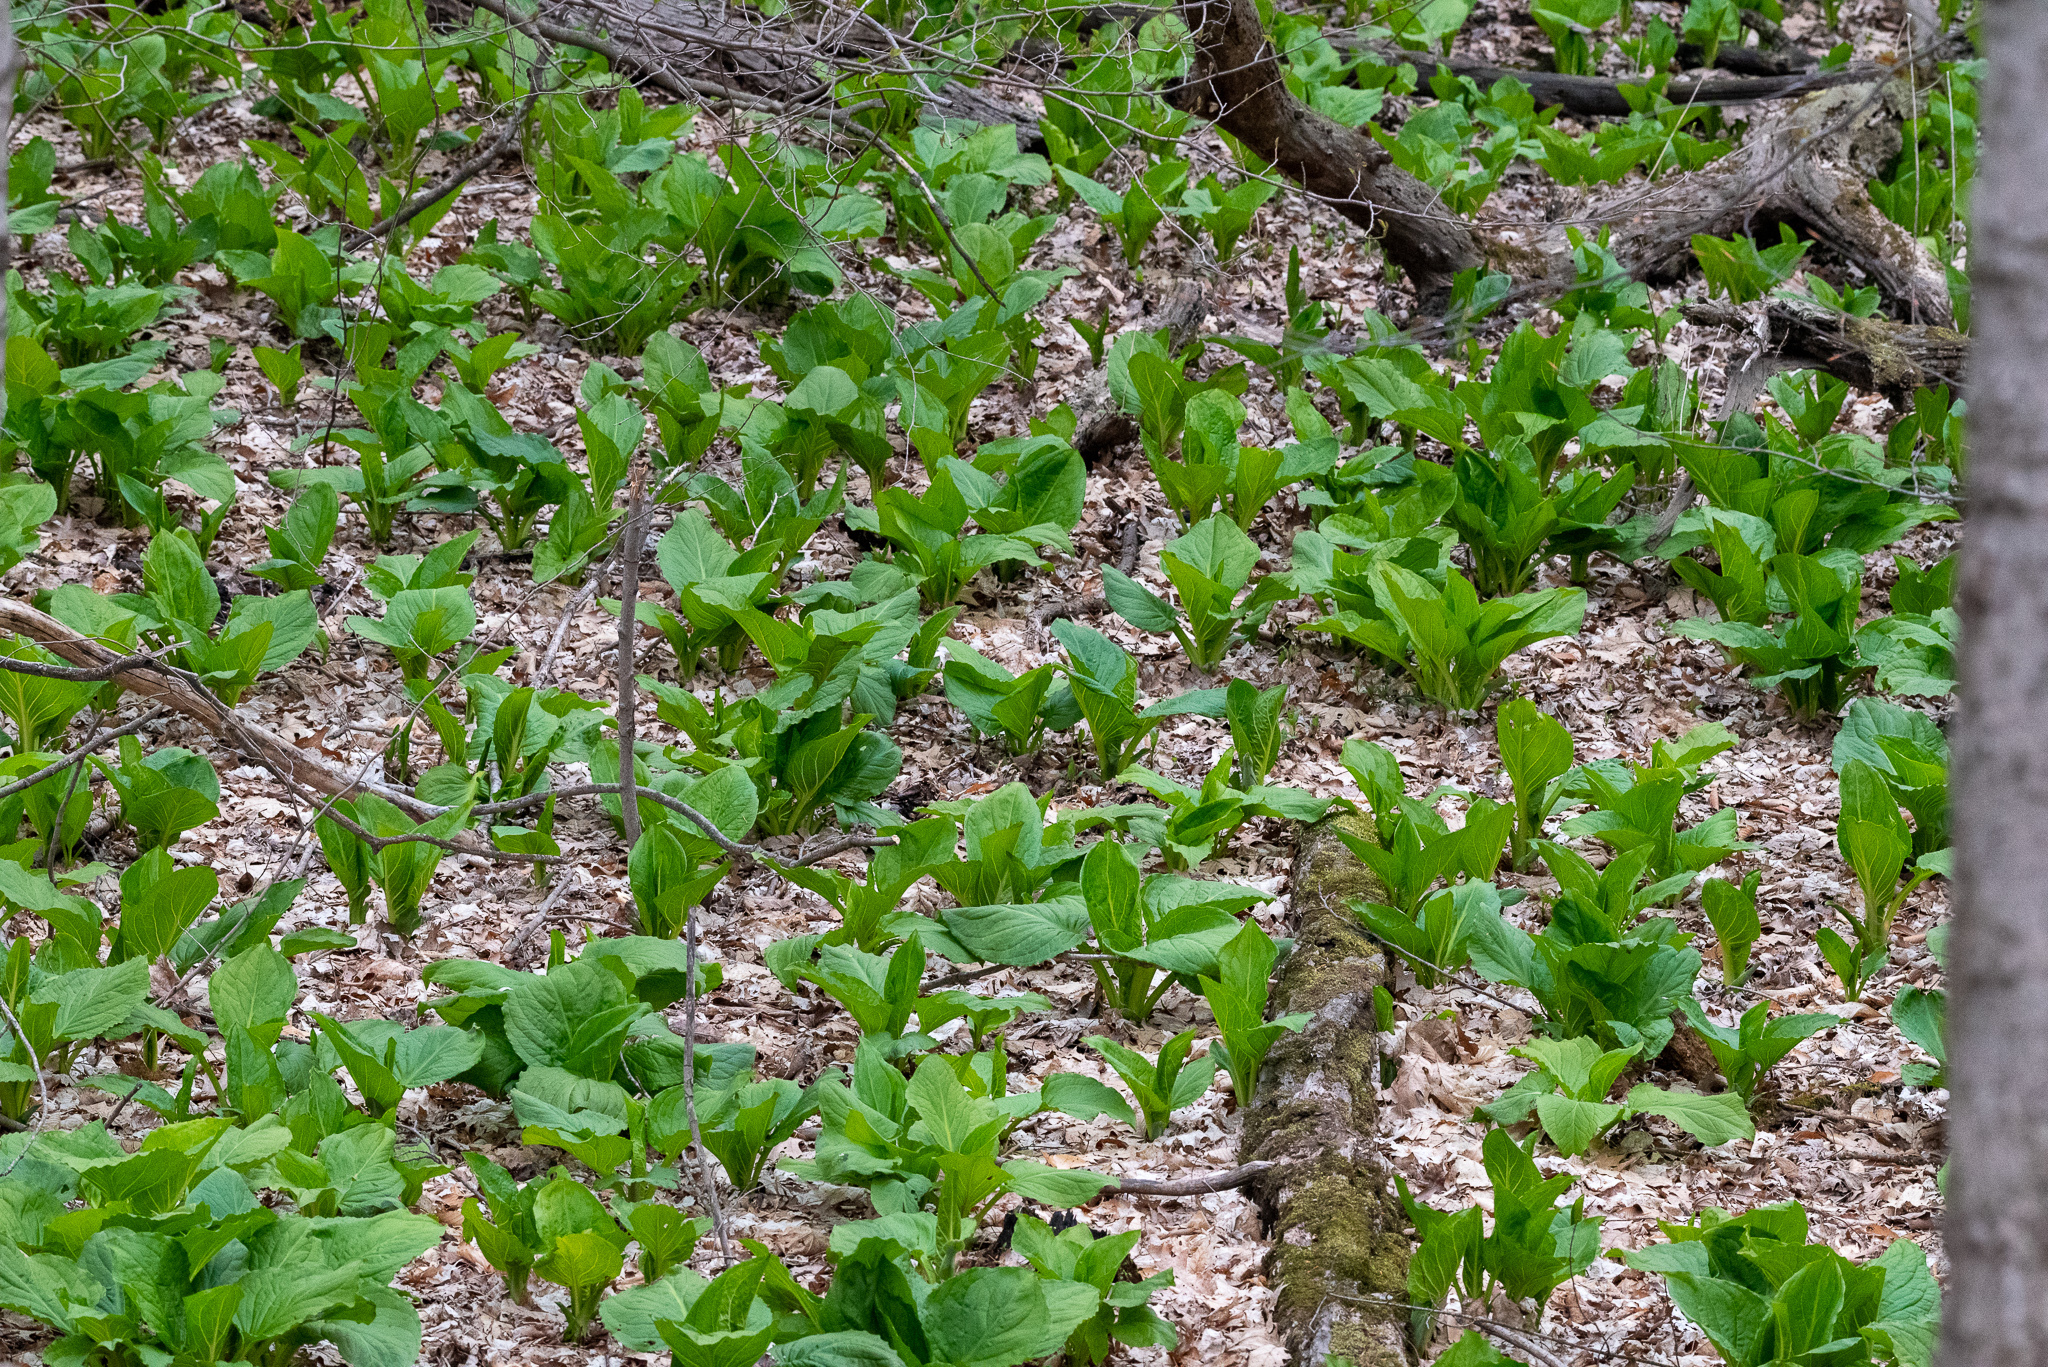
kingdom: Plantae
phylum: Tracheophyta
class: Liliopsida
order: Alismatales
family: Araceae
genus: Symplocarpus
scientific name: Symplocarpus foetidus
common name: Eastern skunk cabbage
